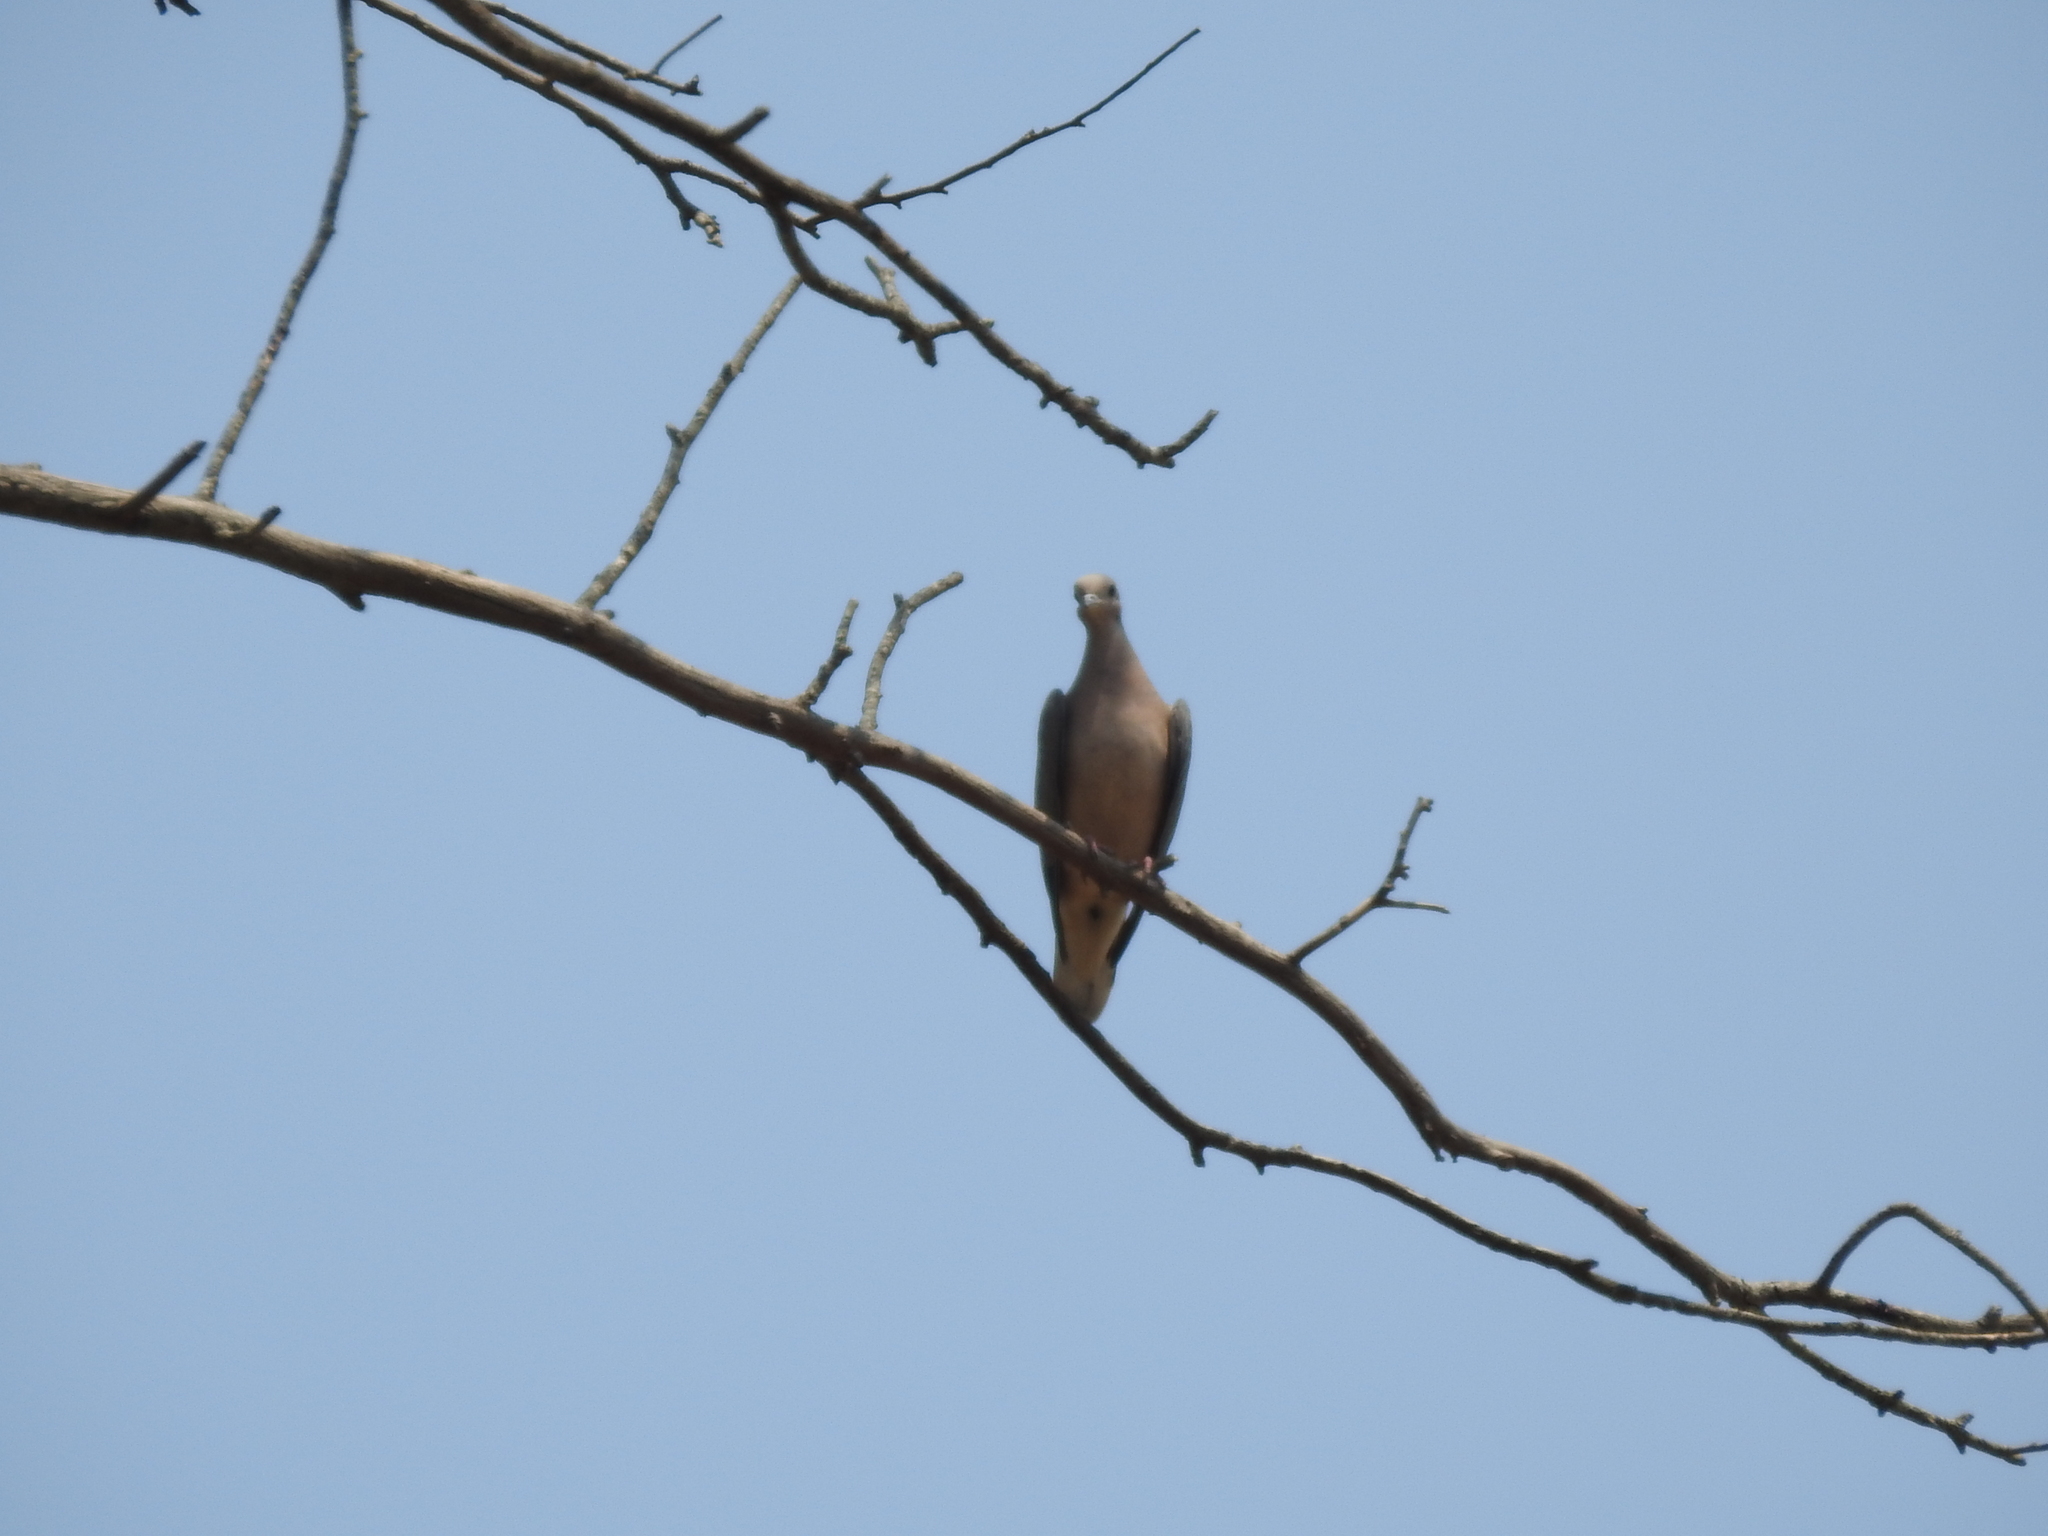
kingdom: Animalia
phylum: Chordata
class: Aves
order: Columbiformes
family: Columbidae
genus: Zenaida
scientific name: Zenaida auriculata
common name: Eared dove
